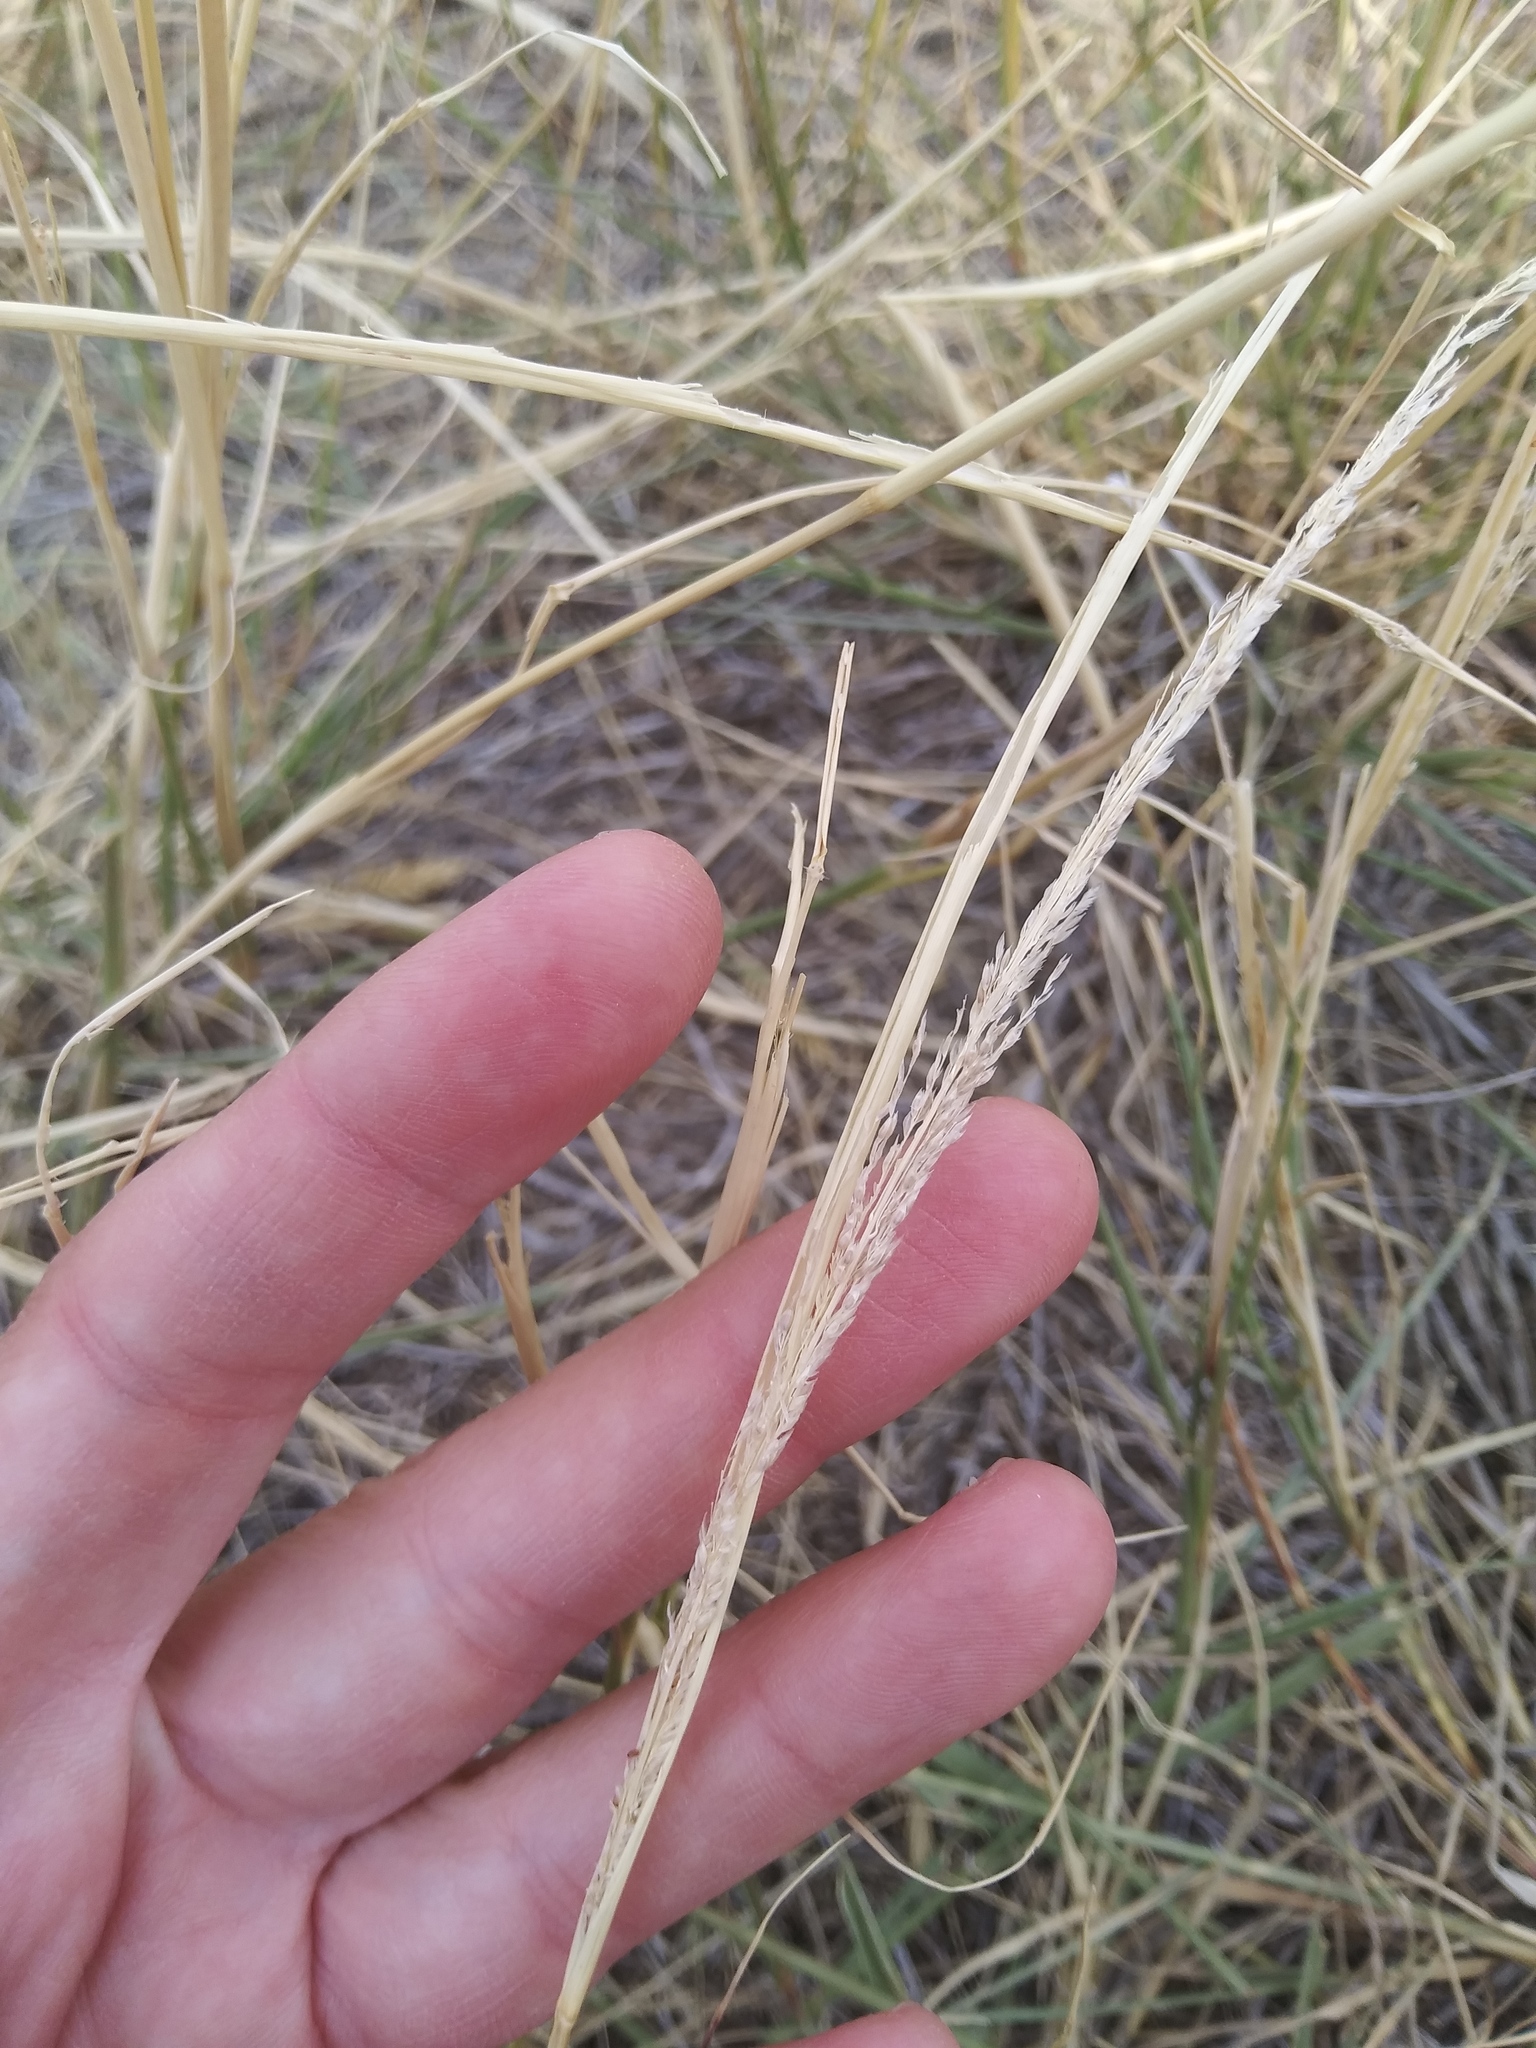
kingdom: Plantae
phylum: Tracheophyta
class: Liliopsida
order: Poales
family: Poaceae
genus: Sporobolus
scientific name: Sporobolus cryptandrus
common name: Sand dropseed
